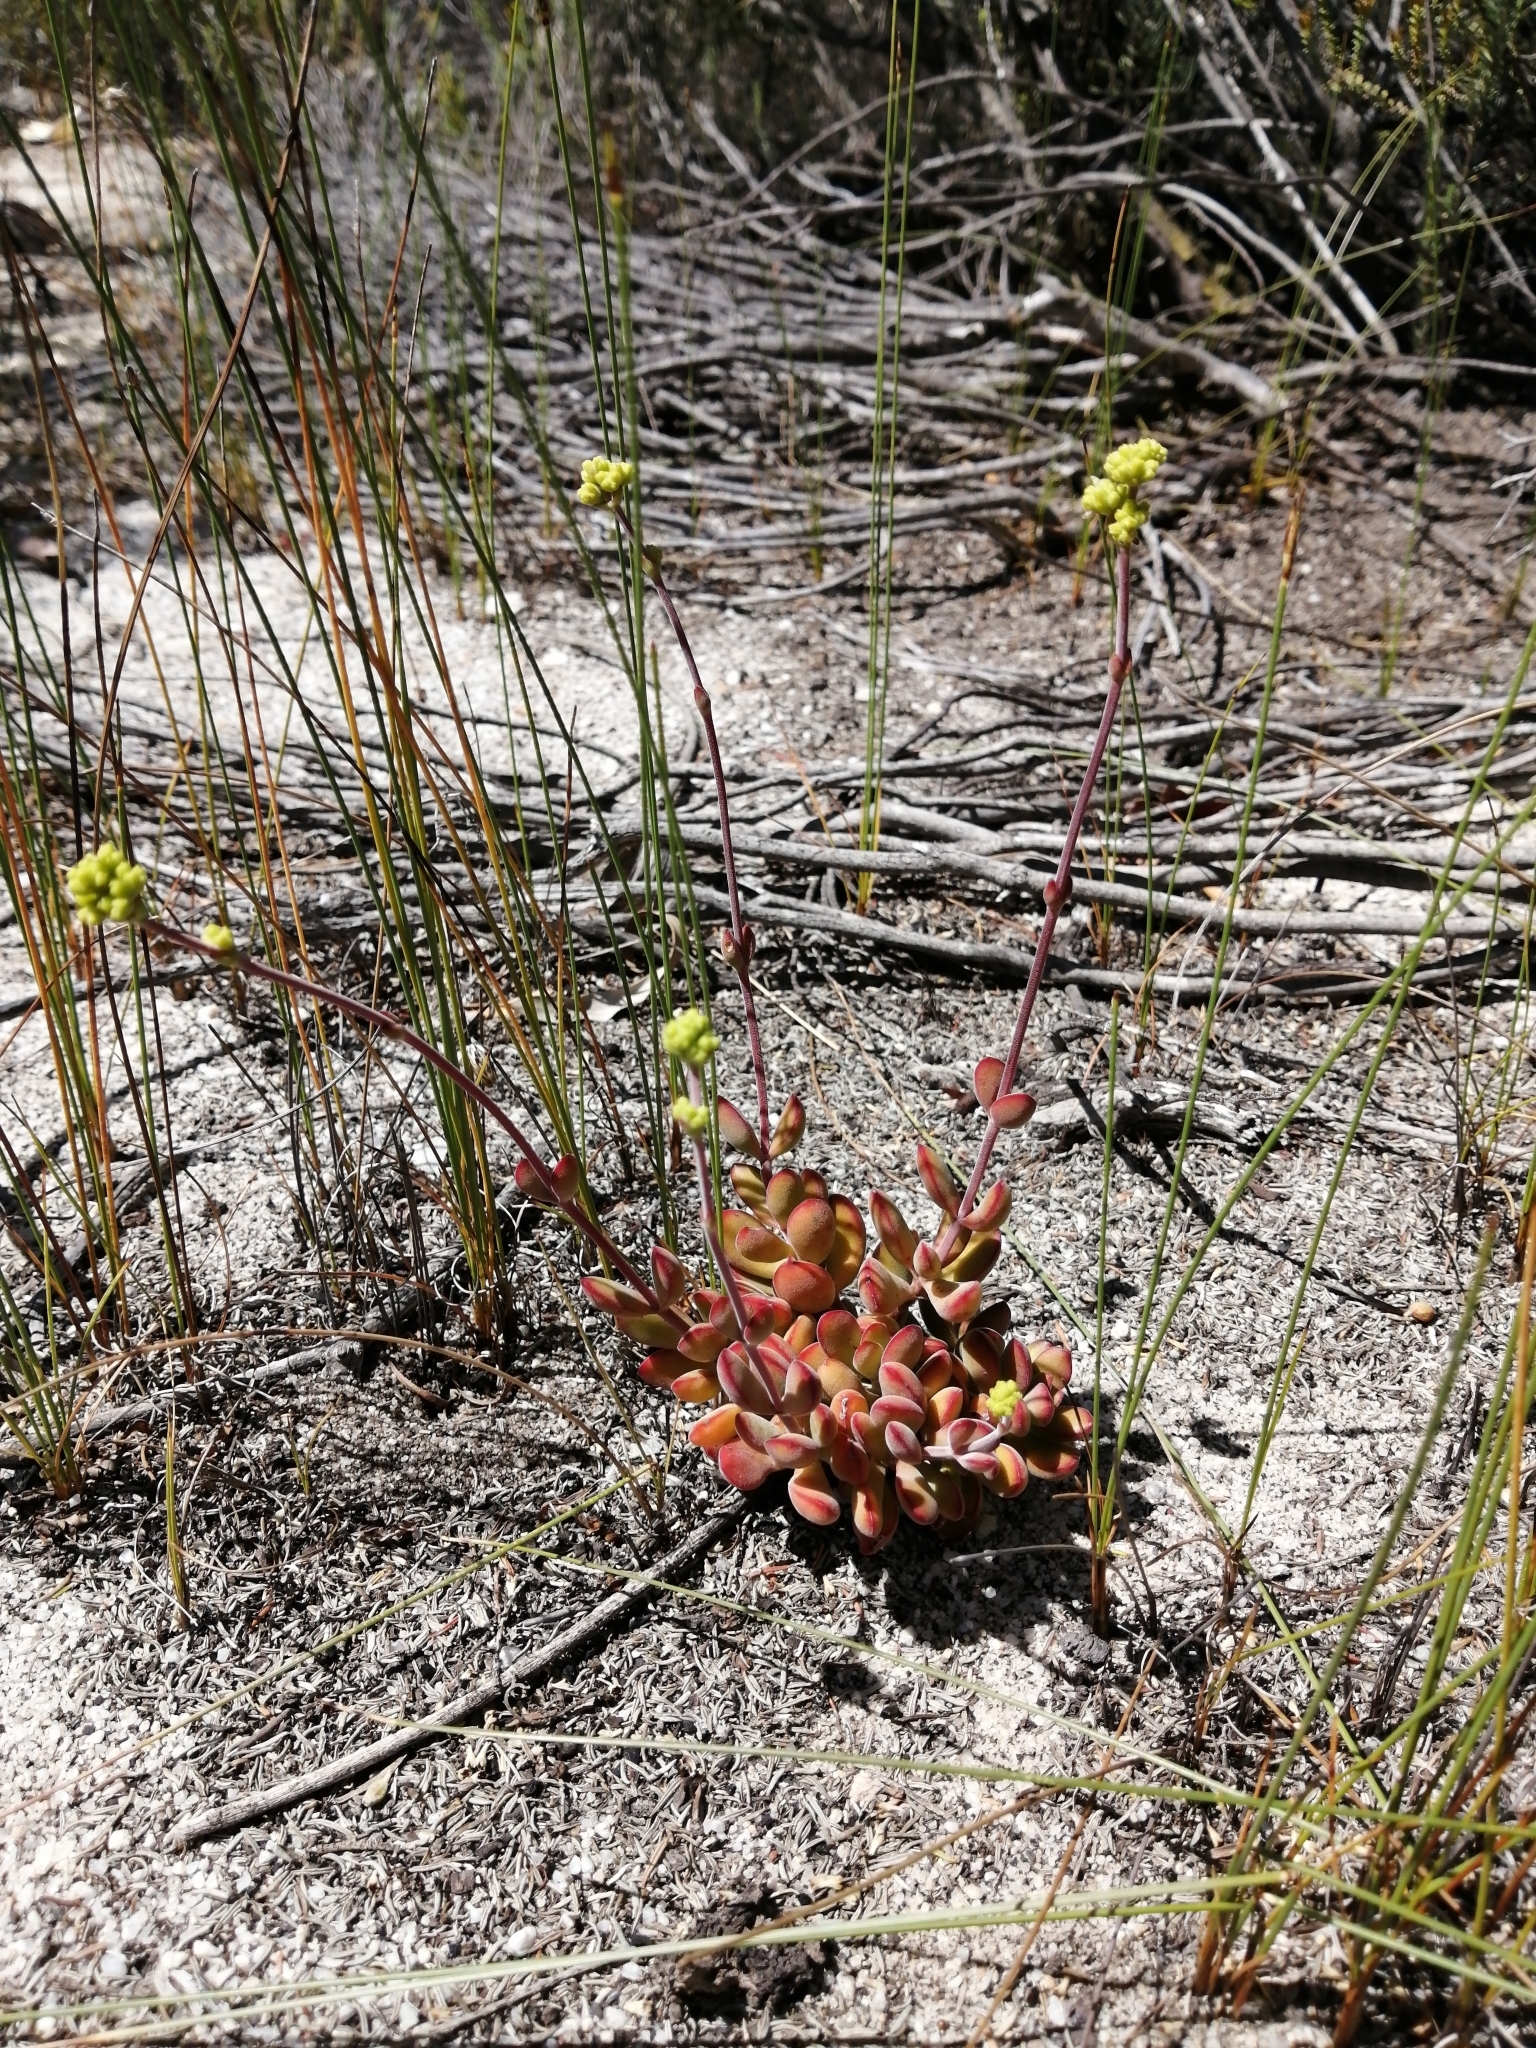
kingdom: Plantae
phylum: Tracheophyta
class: Magnoliopsida
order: Saxifragales
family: Crassulaceae
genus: Crassula
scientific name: Crassula atropurpurea
